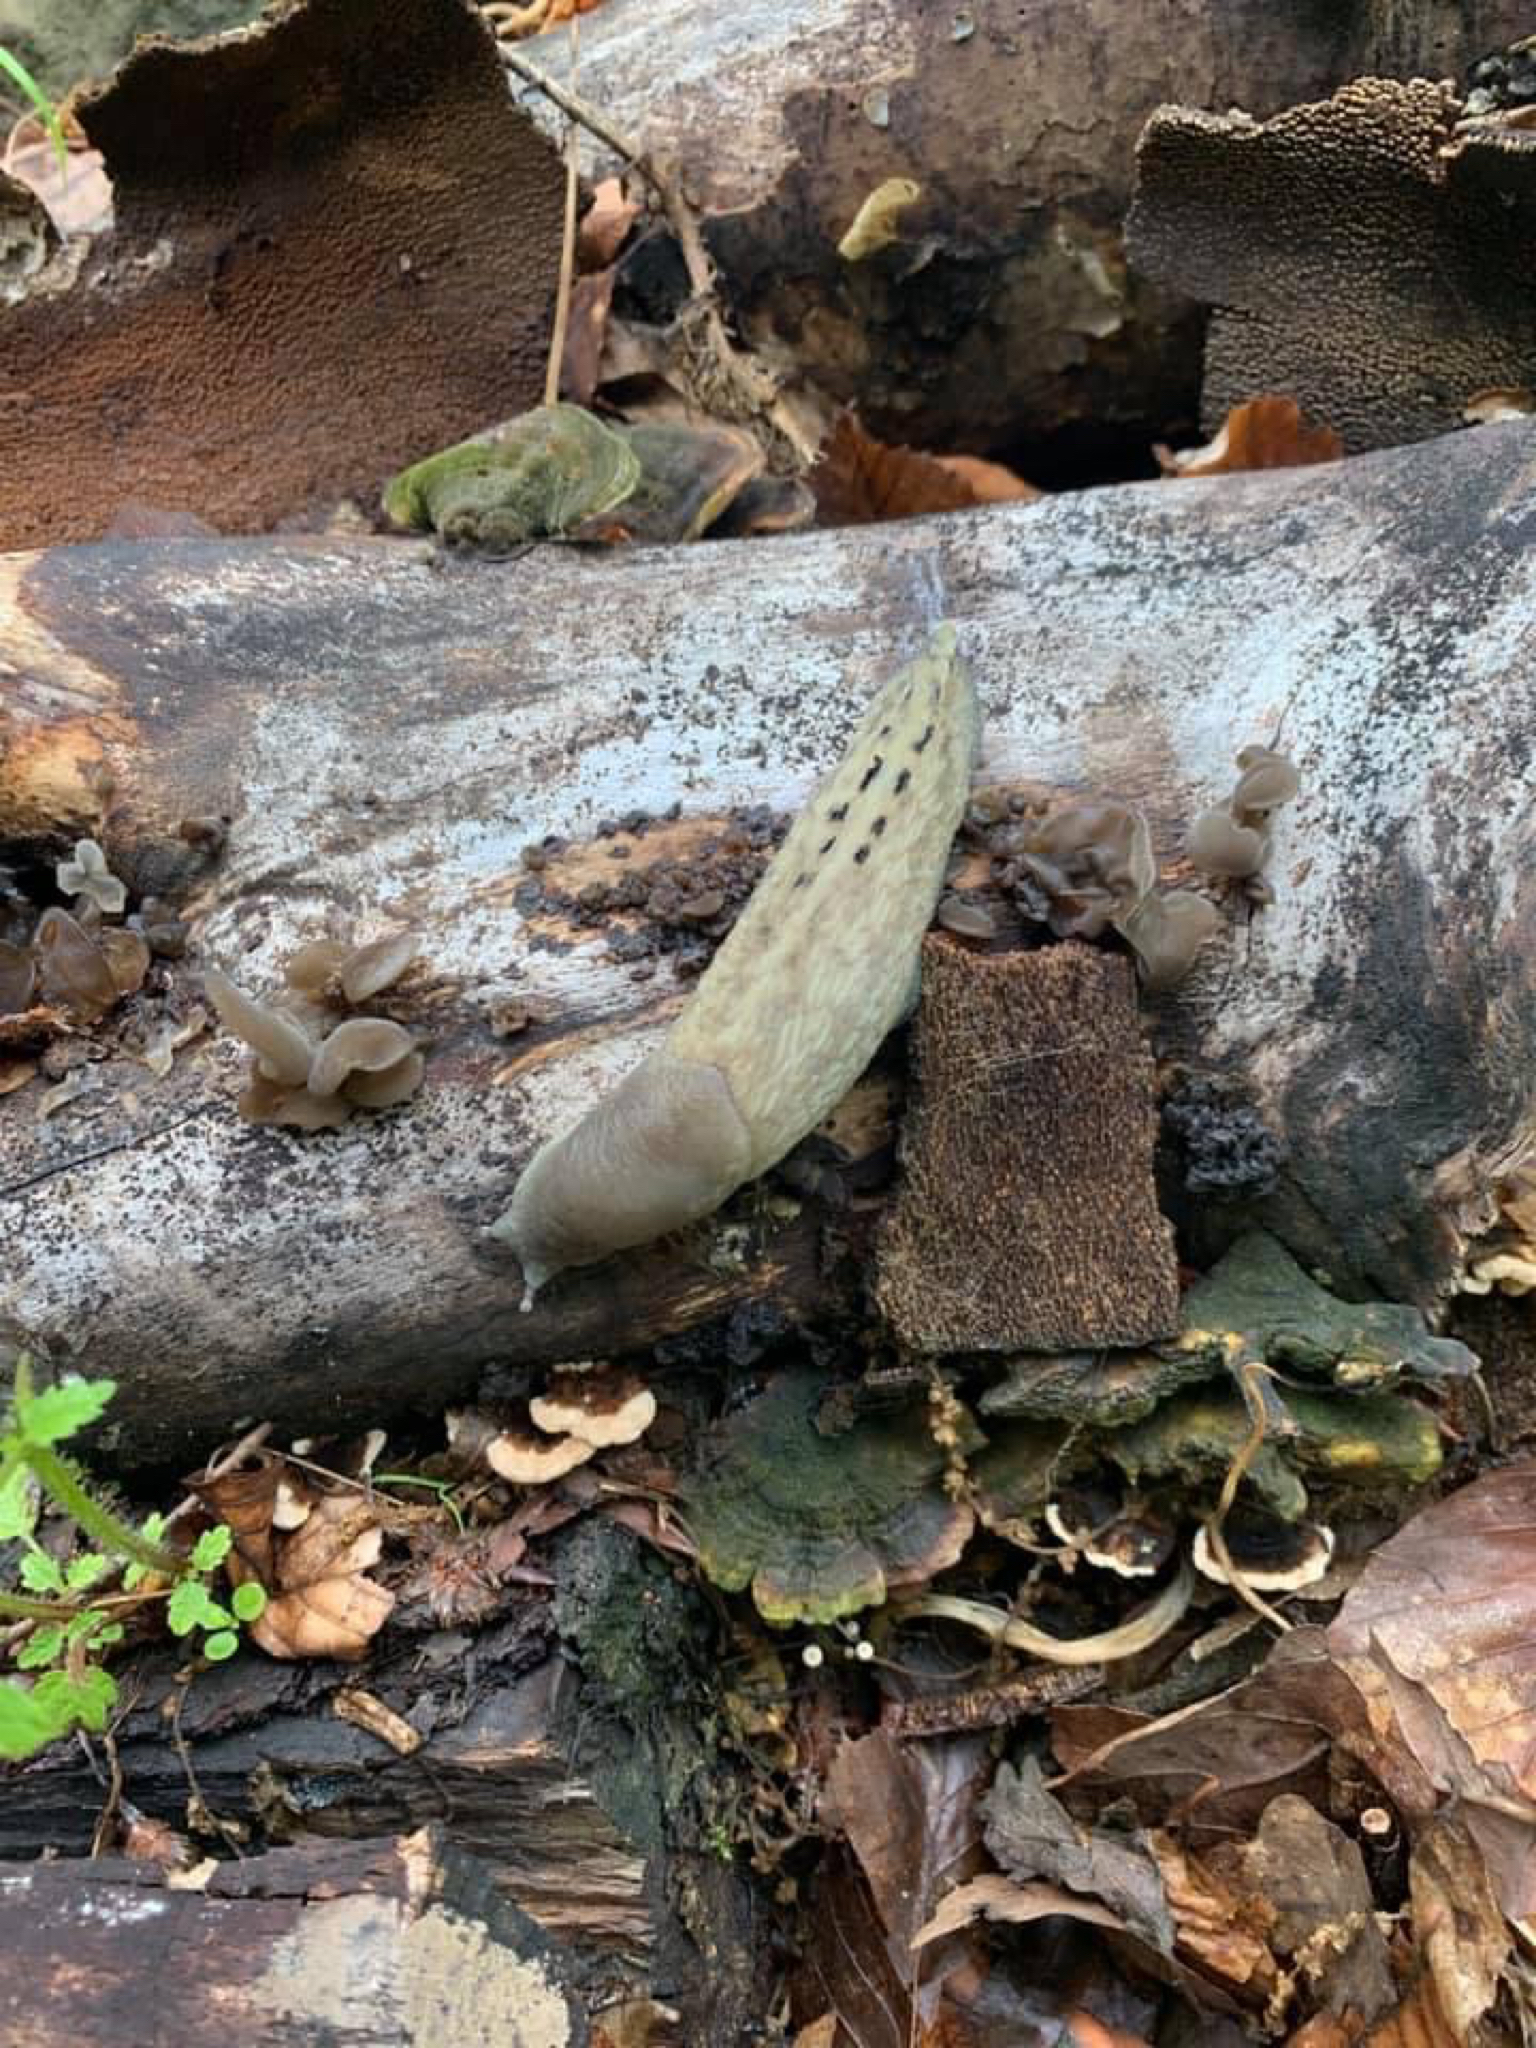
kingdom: Animalia
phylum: Mollusca
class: Gastropoda
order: Stylommatophora
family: Limacidae
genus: Limax
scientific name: Limax cinereoniger
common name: Ash-black slug
